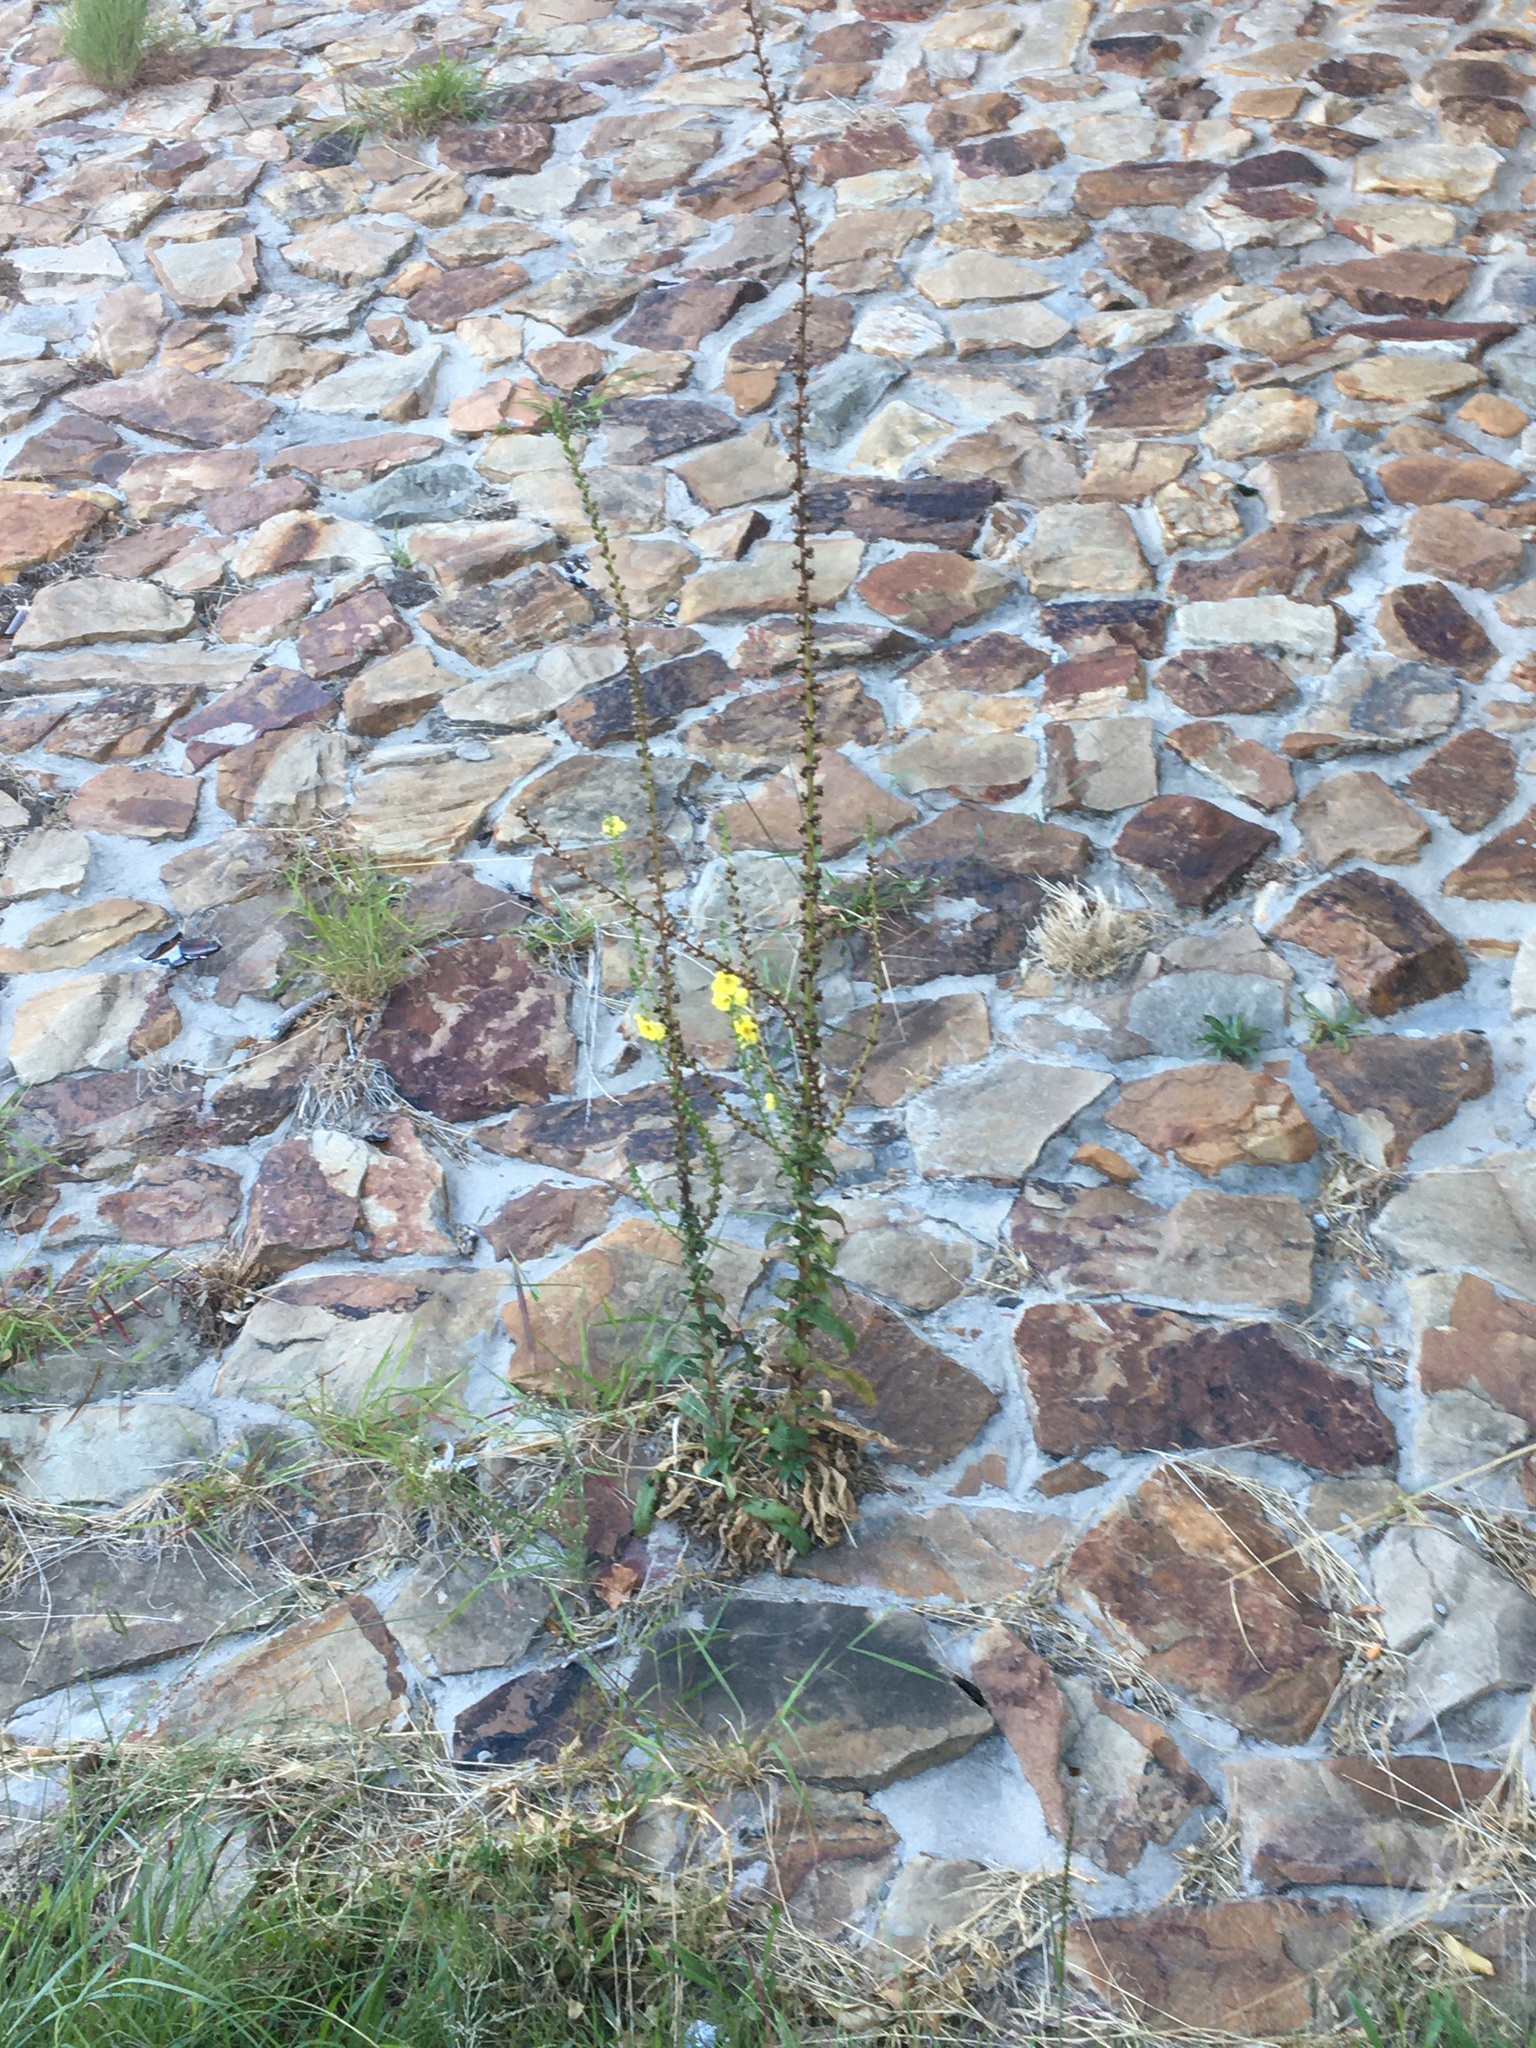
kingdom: Plantae
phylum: Tracheophyta
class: Magnoliopsida
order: Lamiales
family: Scrophulariaceae
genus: Verbascum
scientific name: Verbascum virgatum
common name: Twiggy mullein
